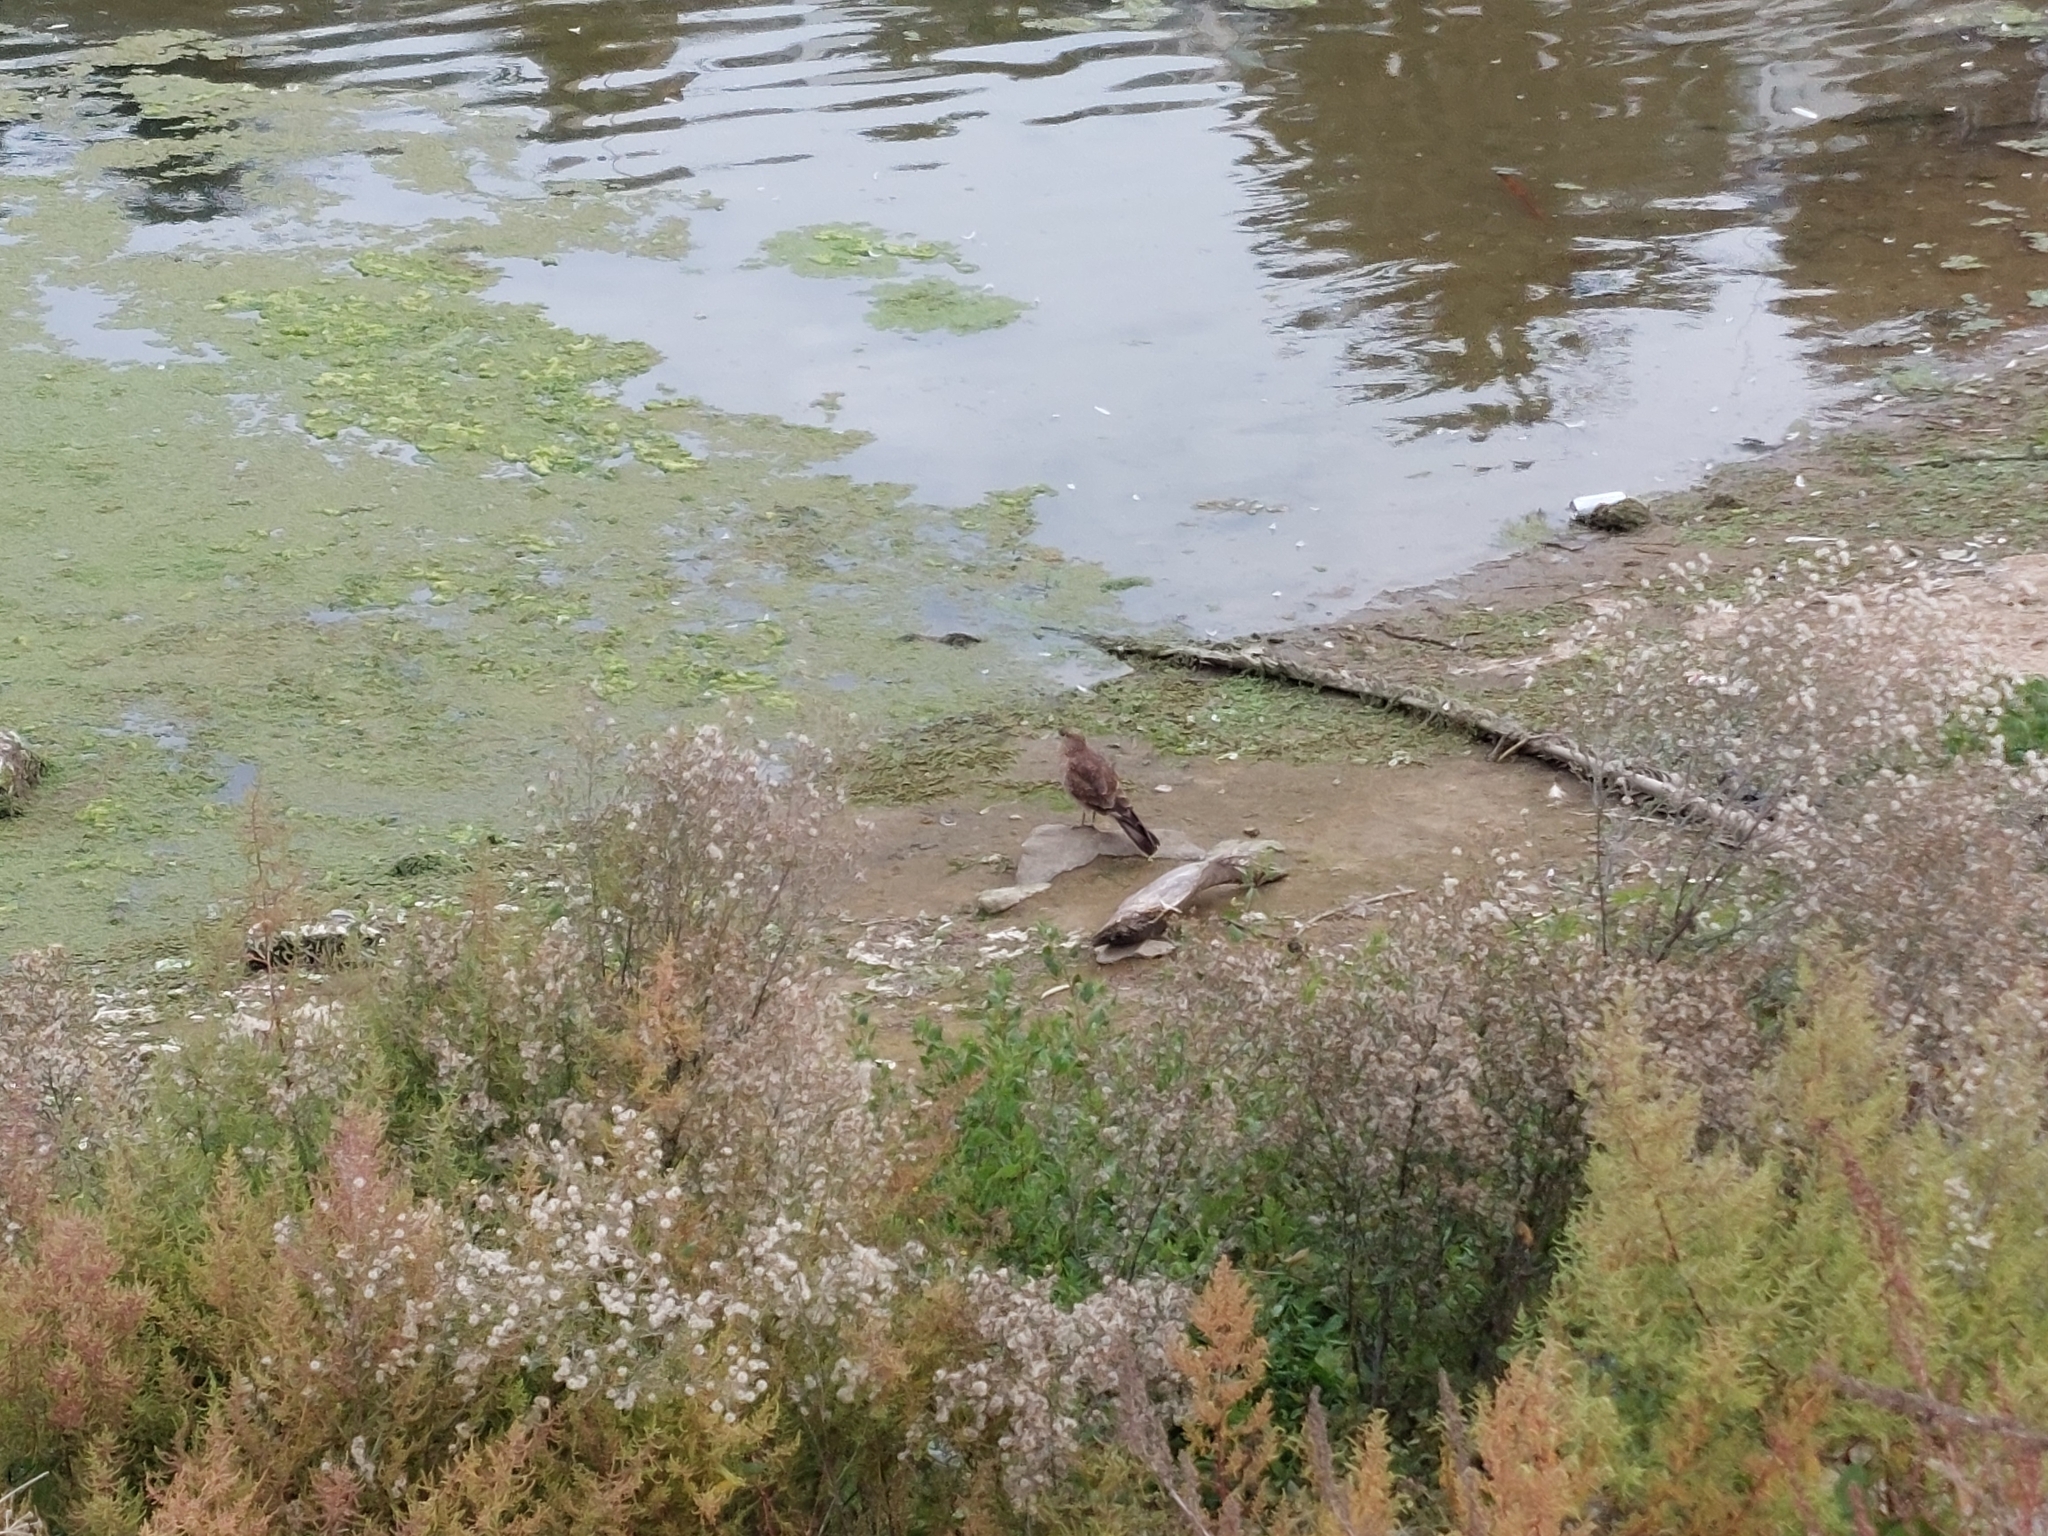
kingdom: Animalia
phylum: Chordata
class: Aves
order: Falconiformes
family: Falconidae
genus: Daptrius
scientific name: Daptrius
